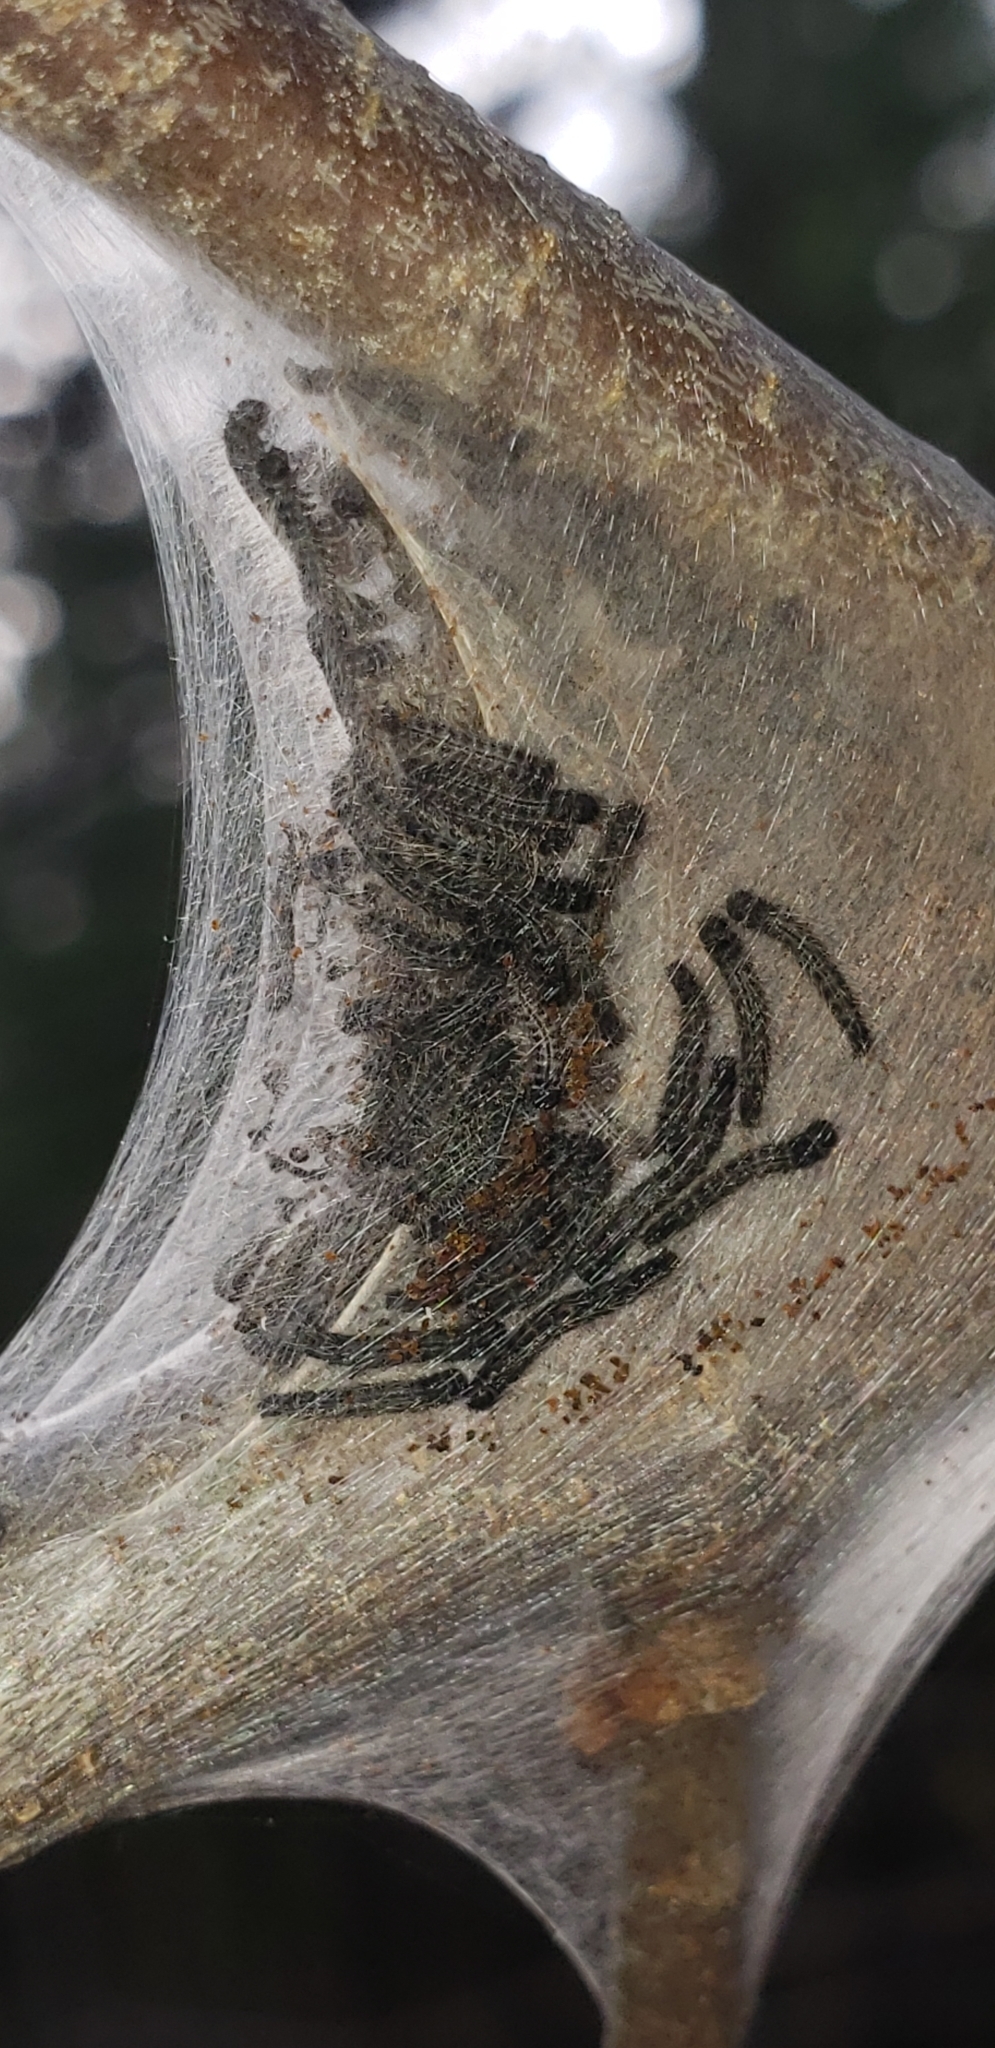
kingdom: Animalia
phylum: Arthropoda
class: Insecta
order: Lepidoptera
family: Lasiocampidae
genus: Malacosoma
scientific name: Malacosoma americana
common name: Eastern tent caterpillar moth
